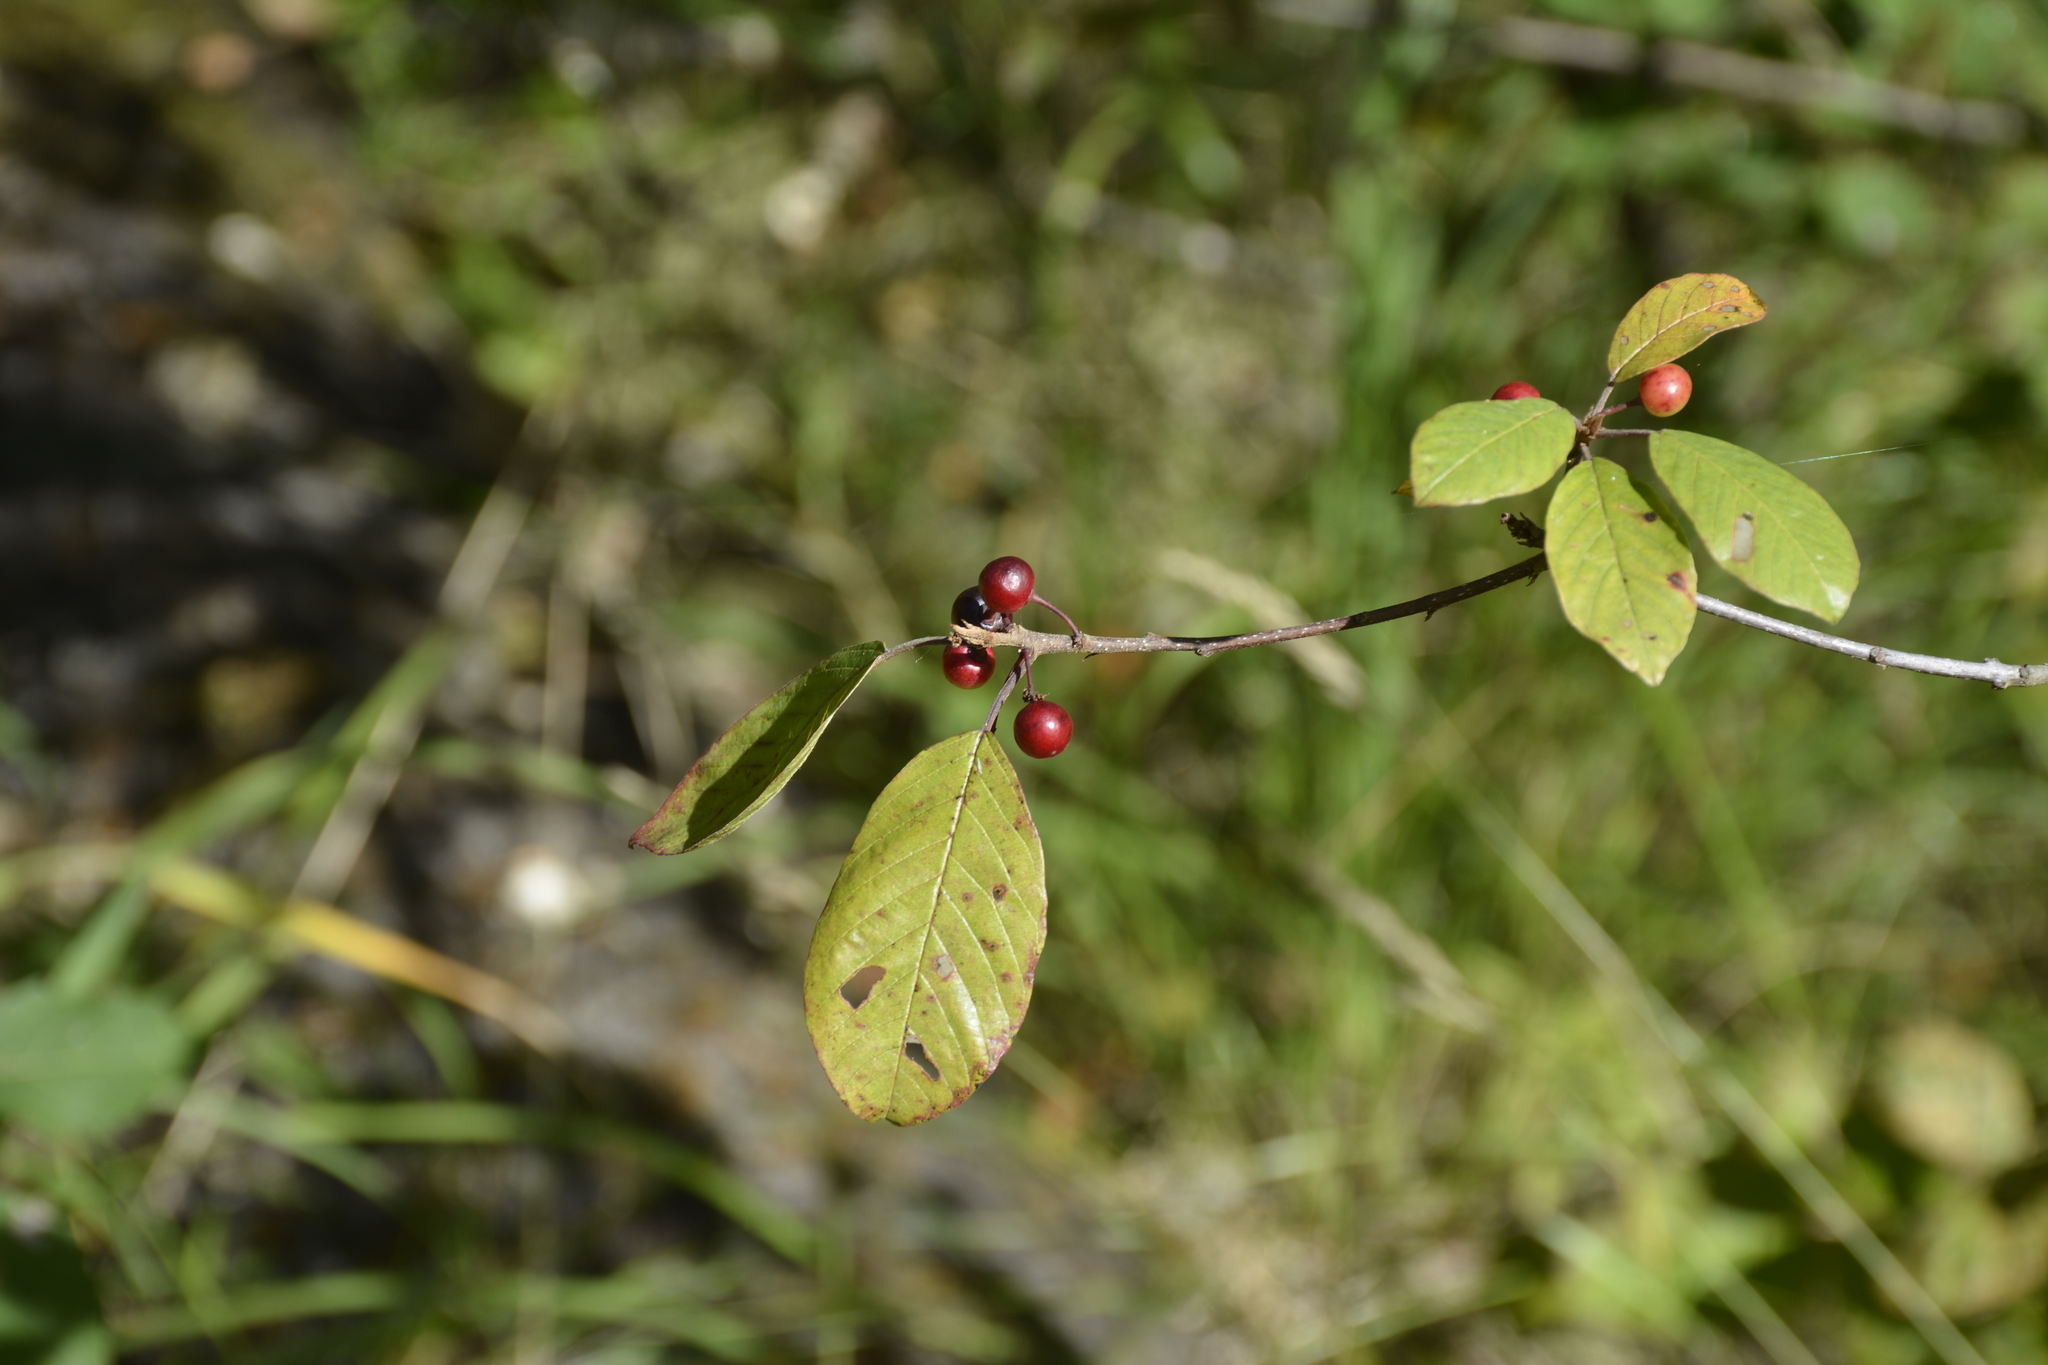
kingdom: Plantae
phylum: Tracheophyta
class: Magnoliopsida
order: Rosales
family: Rhamnaceae
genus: Frangula
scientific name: Frangula alnus
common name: Alder buckthorn
